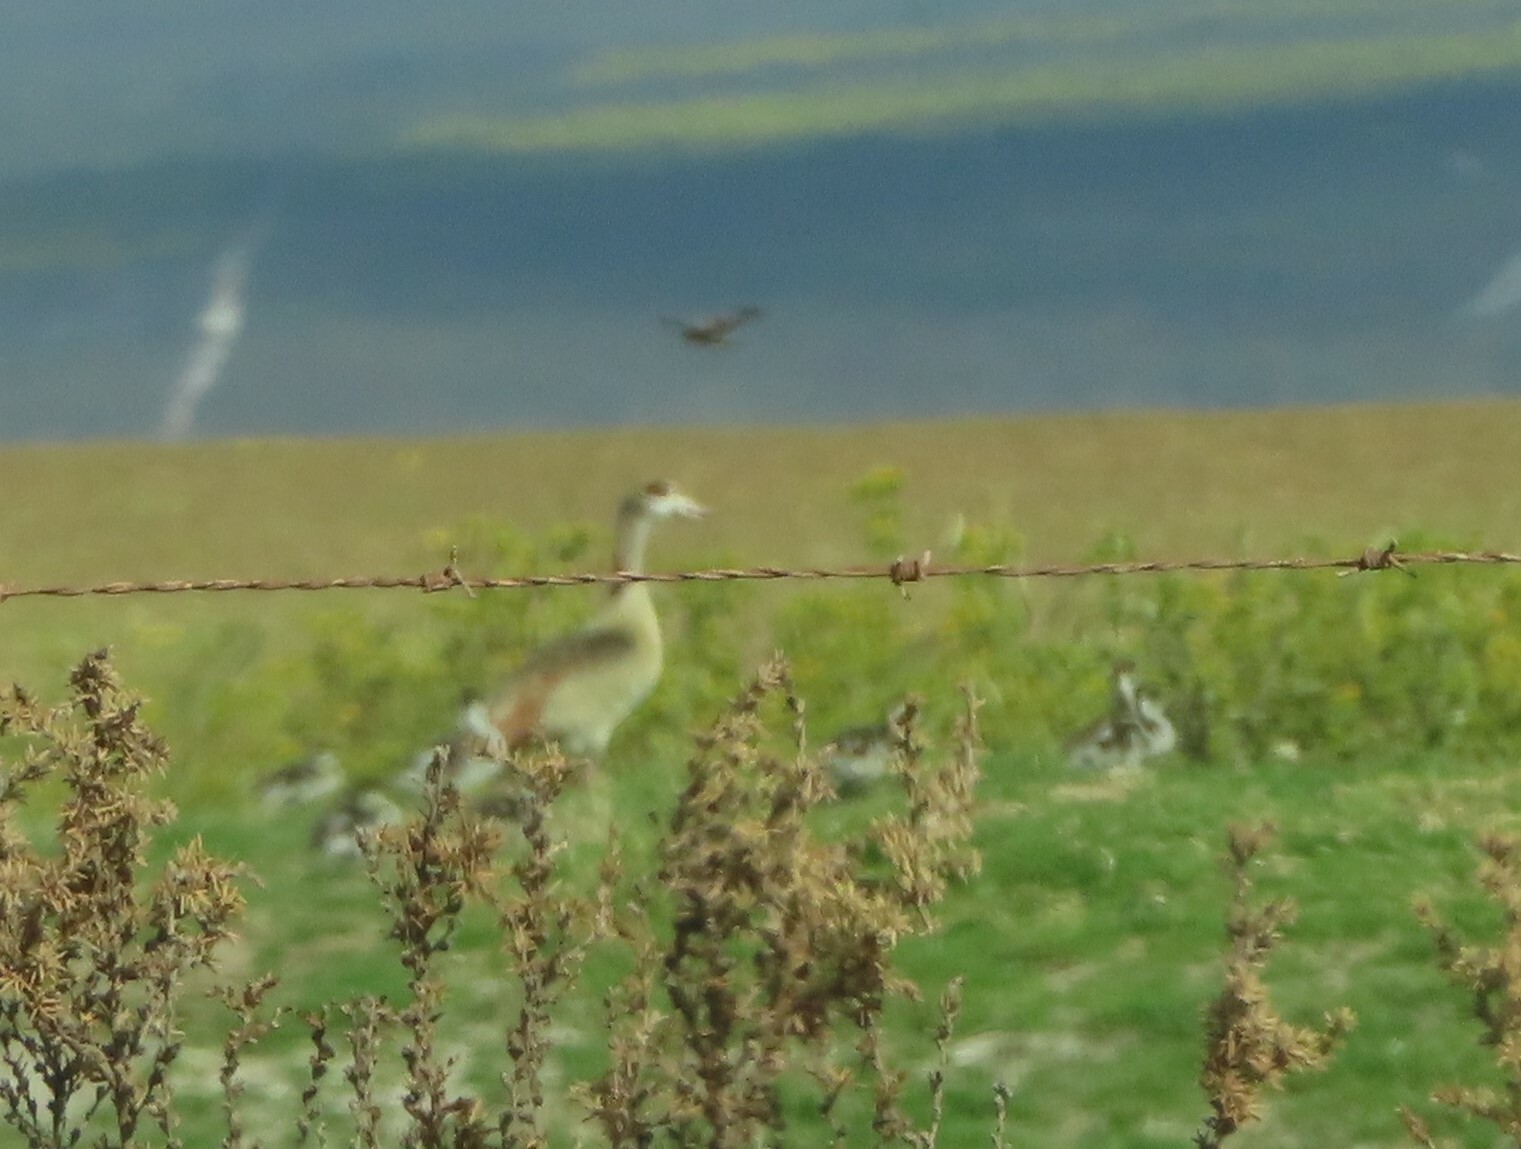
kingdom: Animalia
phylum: Chordata
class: Aves
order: Anseriformes
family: Anatidae
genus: Alopochen
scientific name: Alopochen aegyptiaca
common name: Egyptian goose
